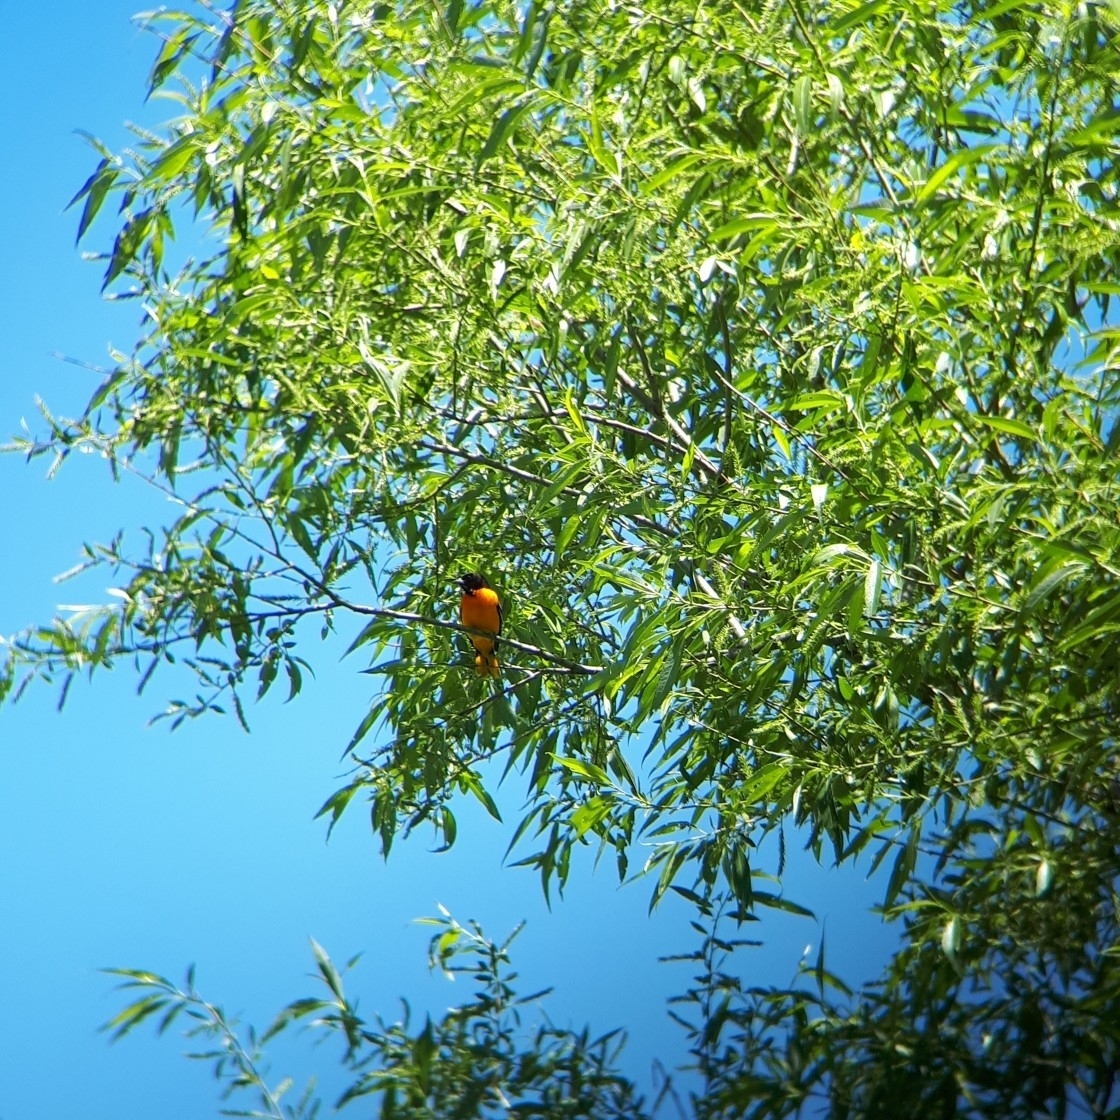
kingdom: Animalia
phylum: Chordata
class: Aves
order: Passeriformes
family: Icteridae
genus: Icterus
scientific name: Icterus galbula
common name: Baltimore oriole
